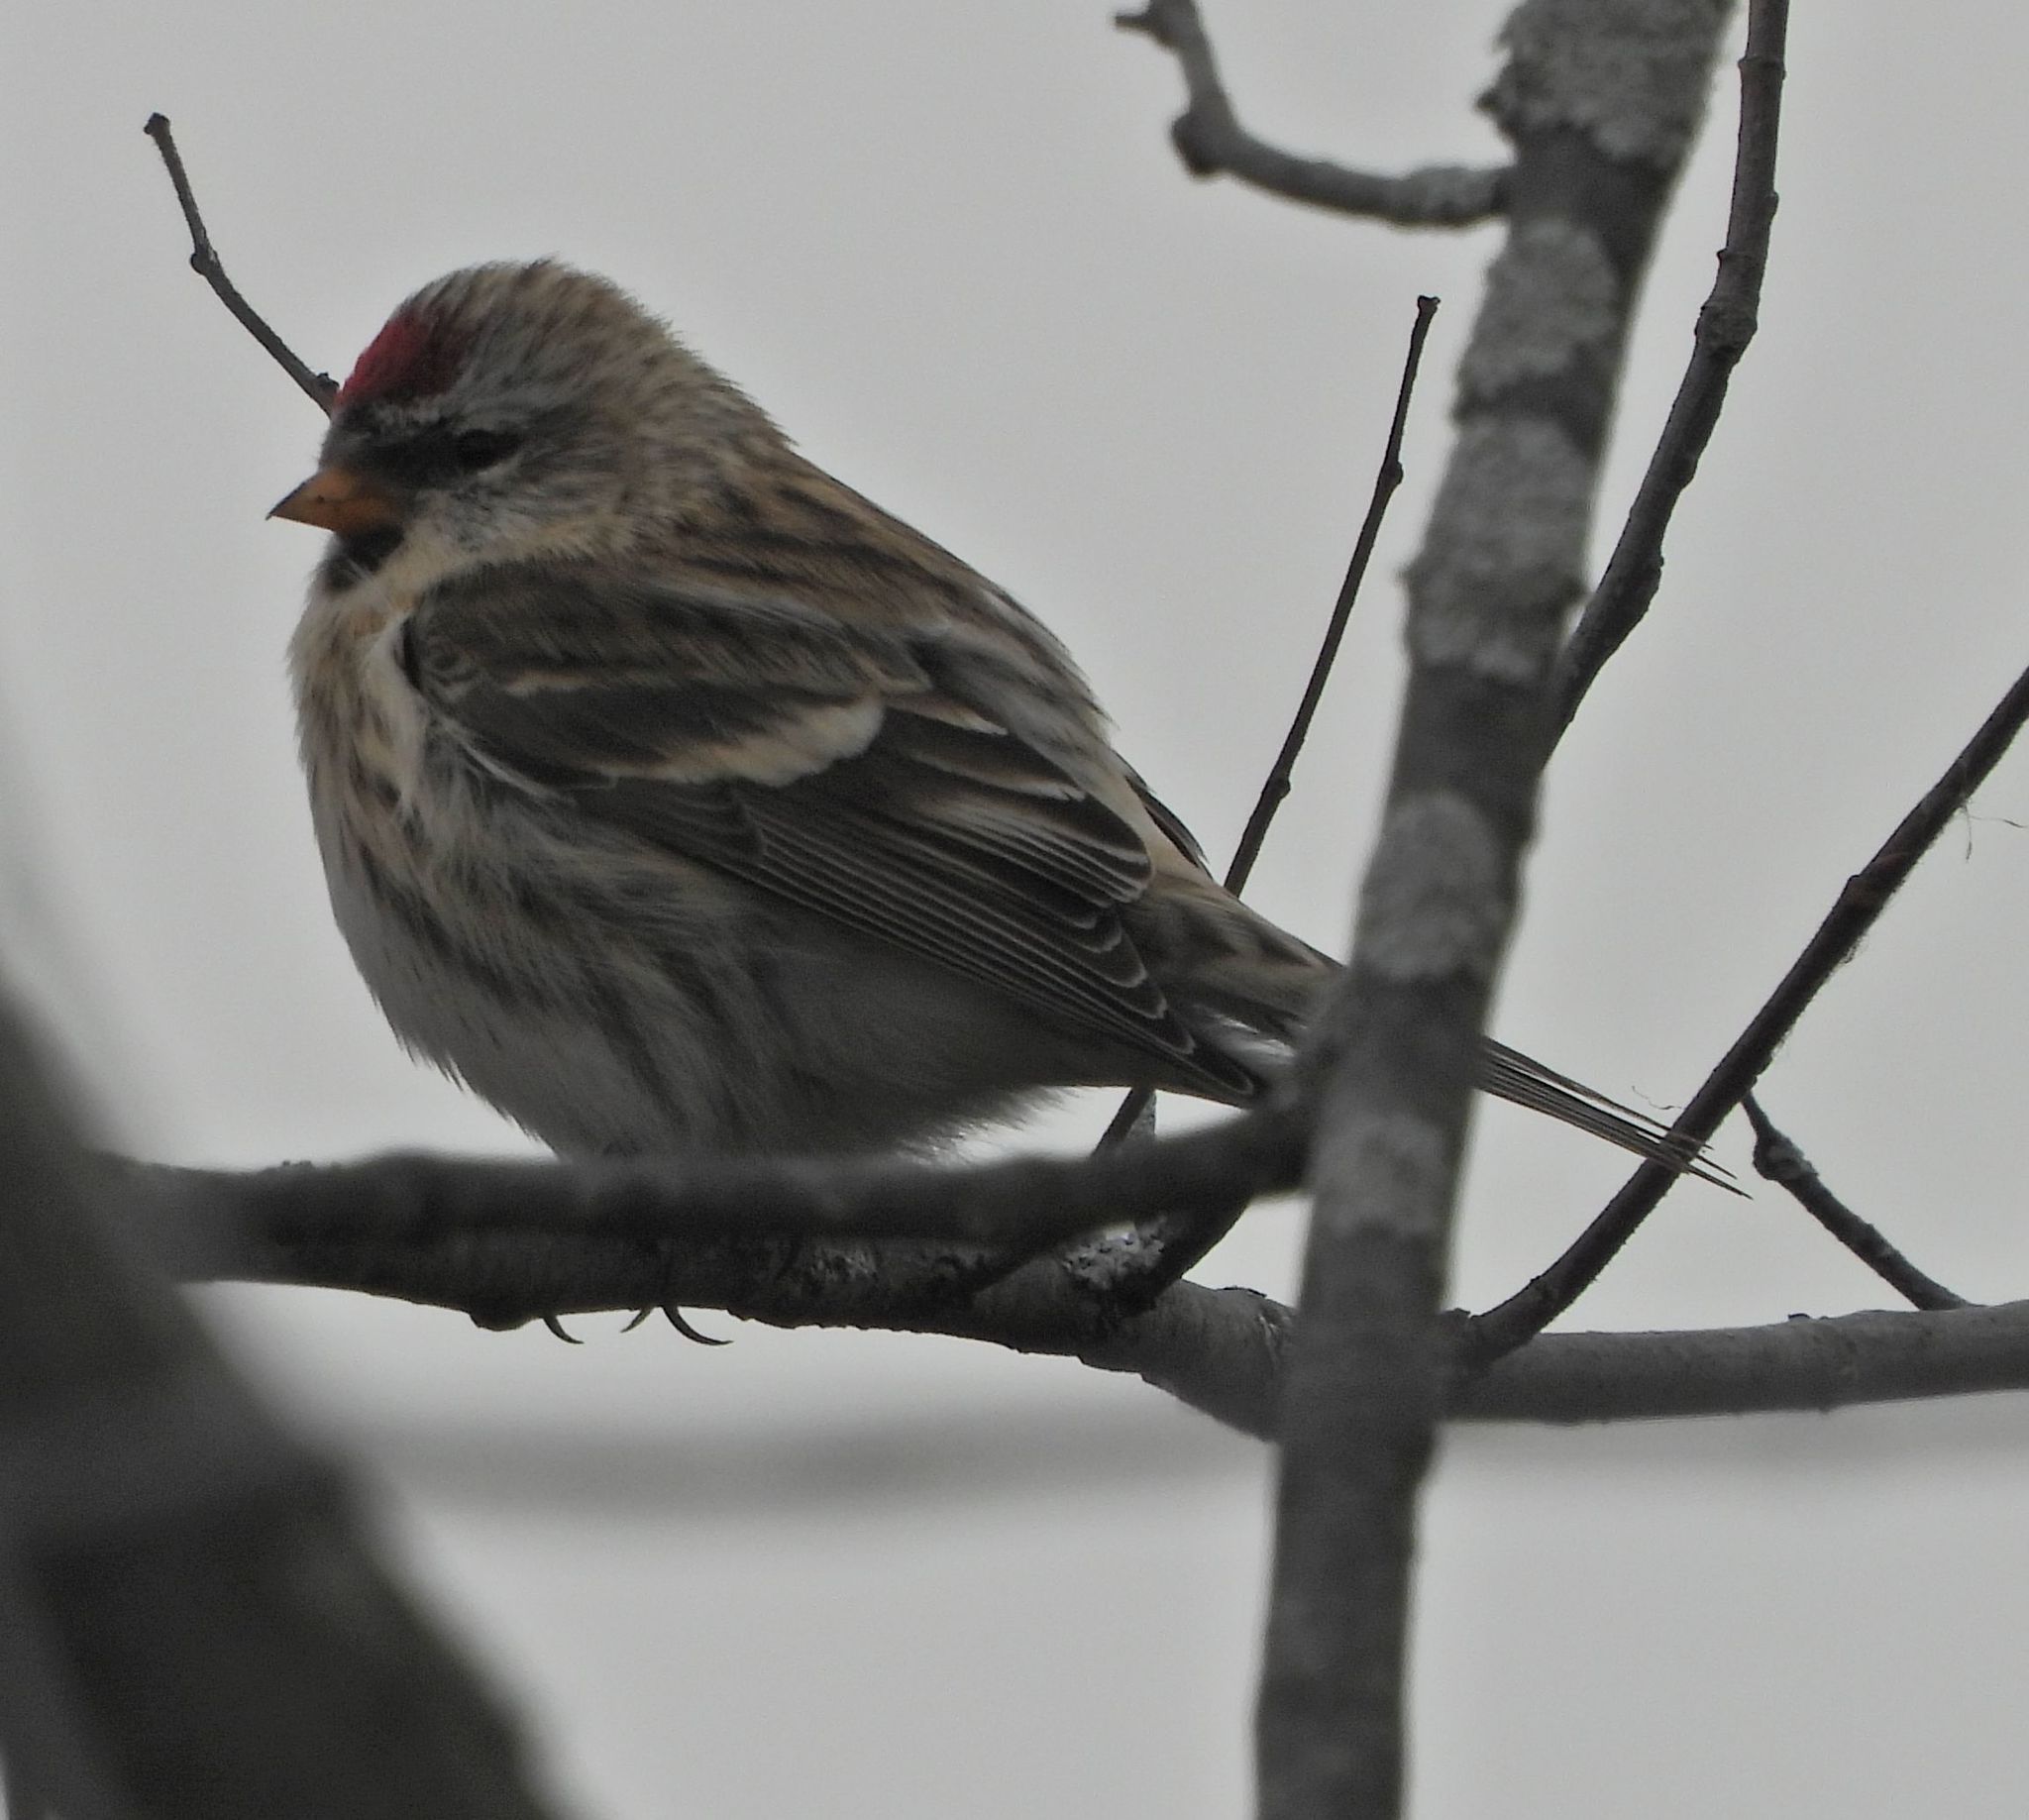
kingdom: Animalia
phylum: Chordata
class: Aves
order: Passeriformes
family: Fringillidae
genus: Acanthis
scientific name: Acanthis flammea
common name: Common redpoll
